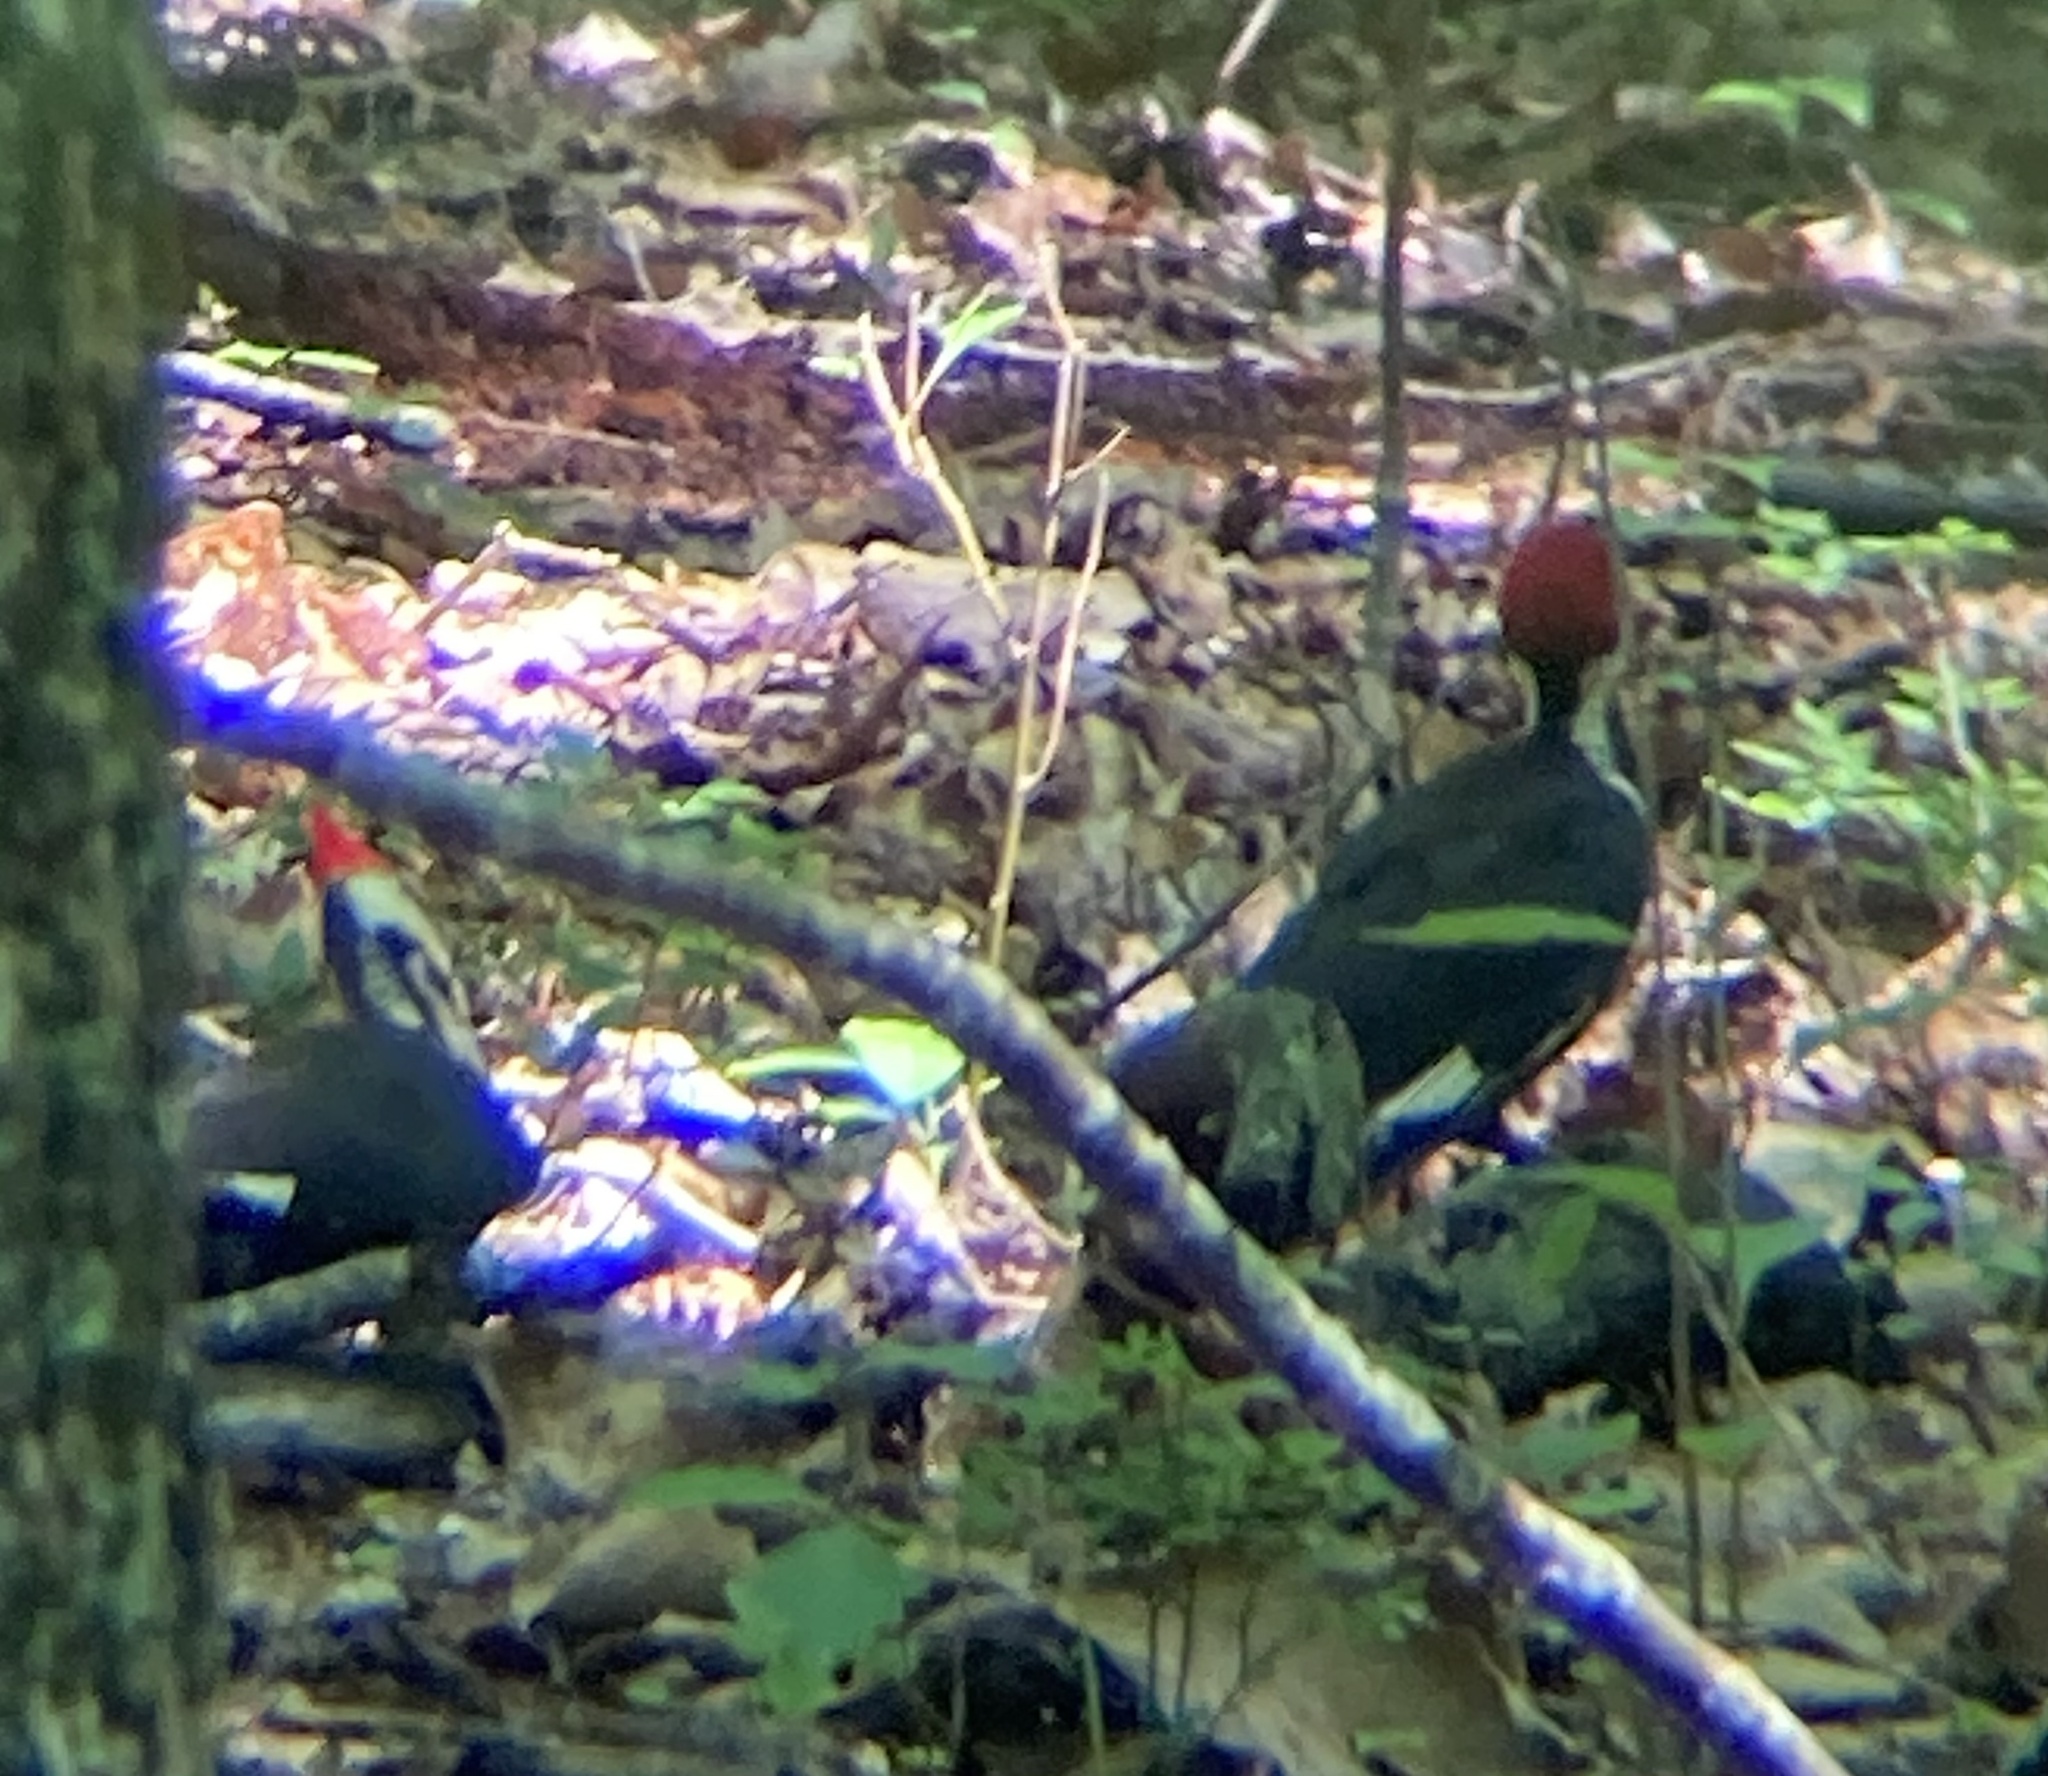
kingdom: Animalia
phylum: Chordata
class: Aves
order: Piciformes
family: Picidae
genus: Dryocopus
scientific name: Dryocopus pileatus
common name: Pileated woodpecker
